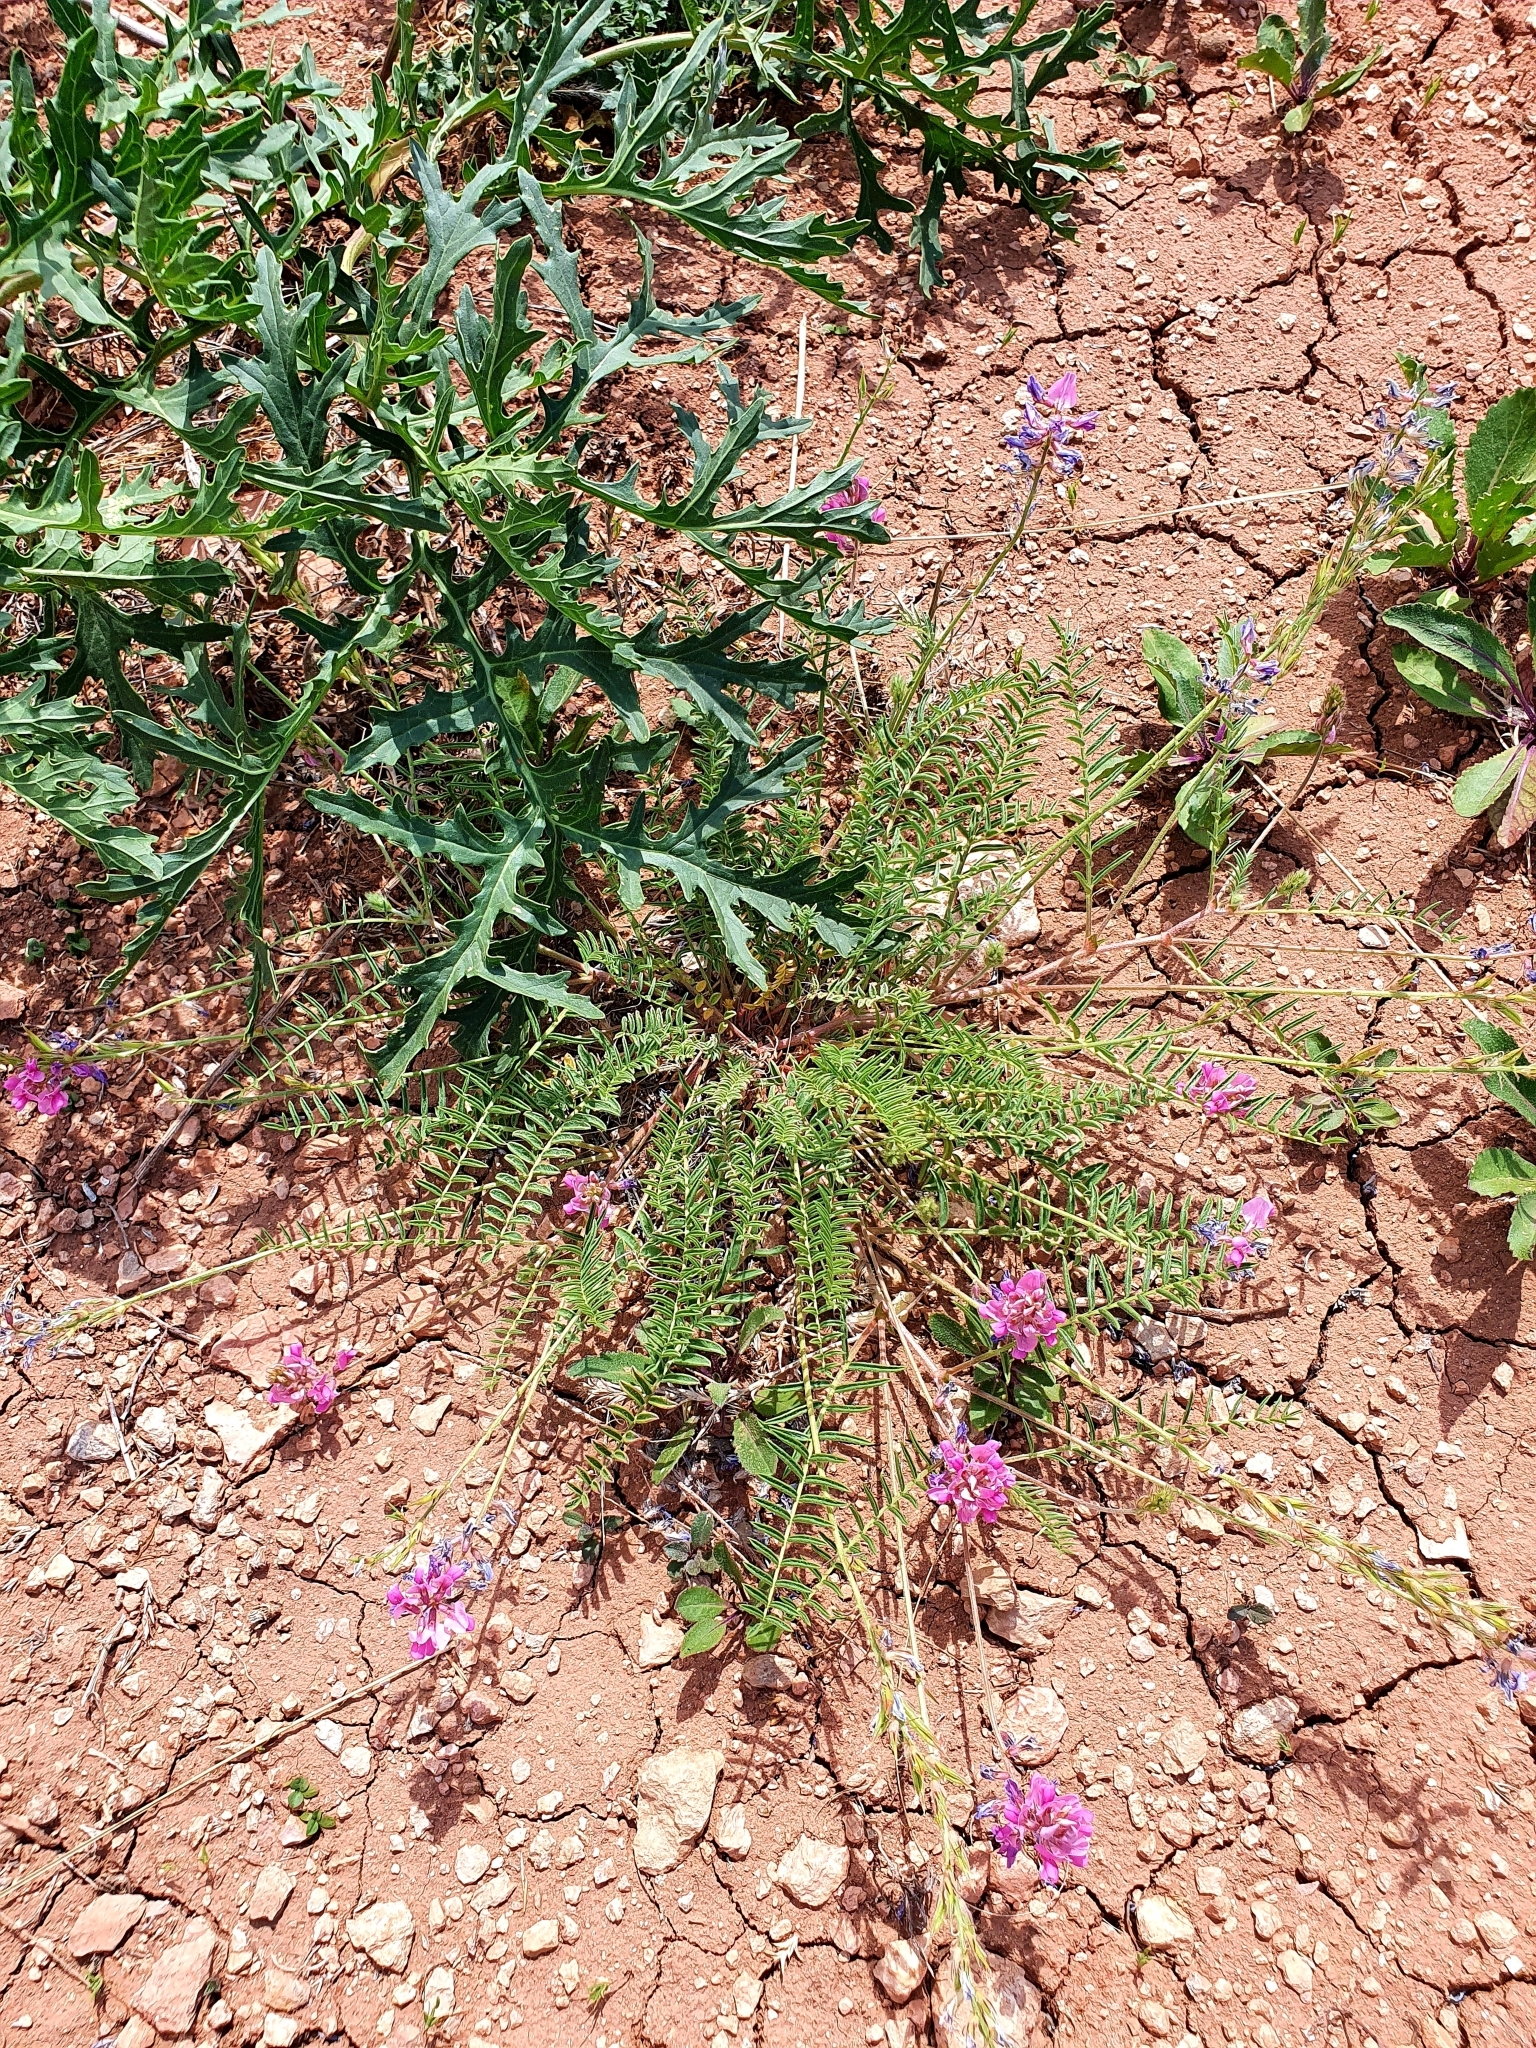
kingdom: Plantae
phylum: Tracheophyta
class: Magnoliopsida
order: Fabales
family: Fabaceae
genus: Oxytropis
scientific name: Oxytropis floribunda
